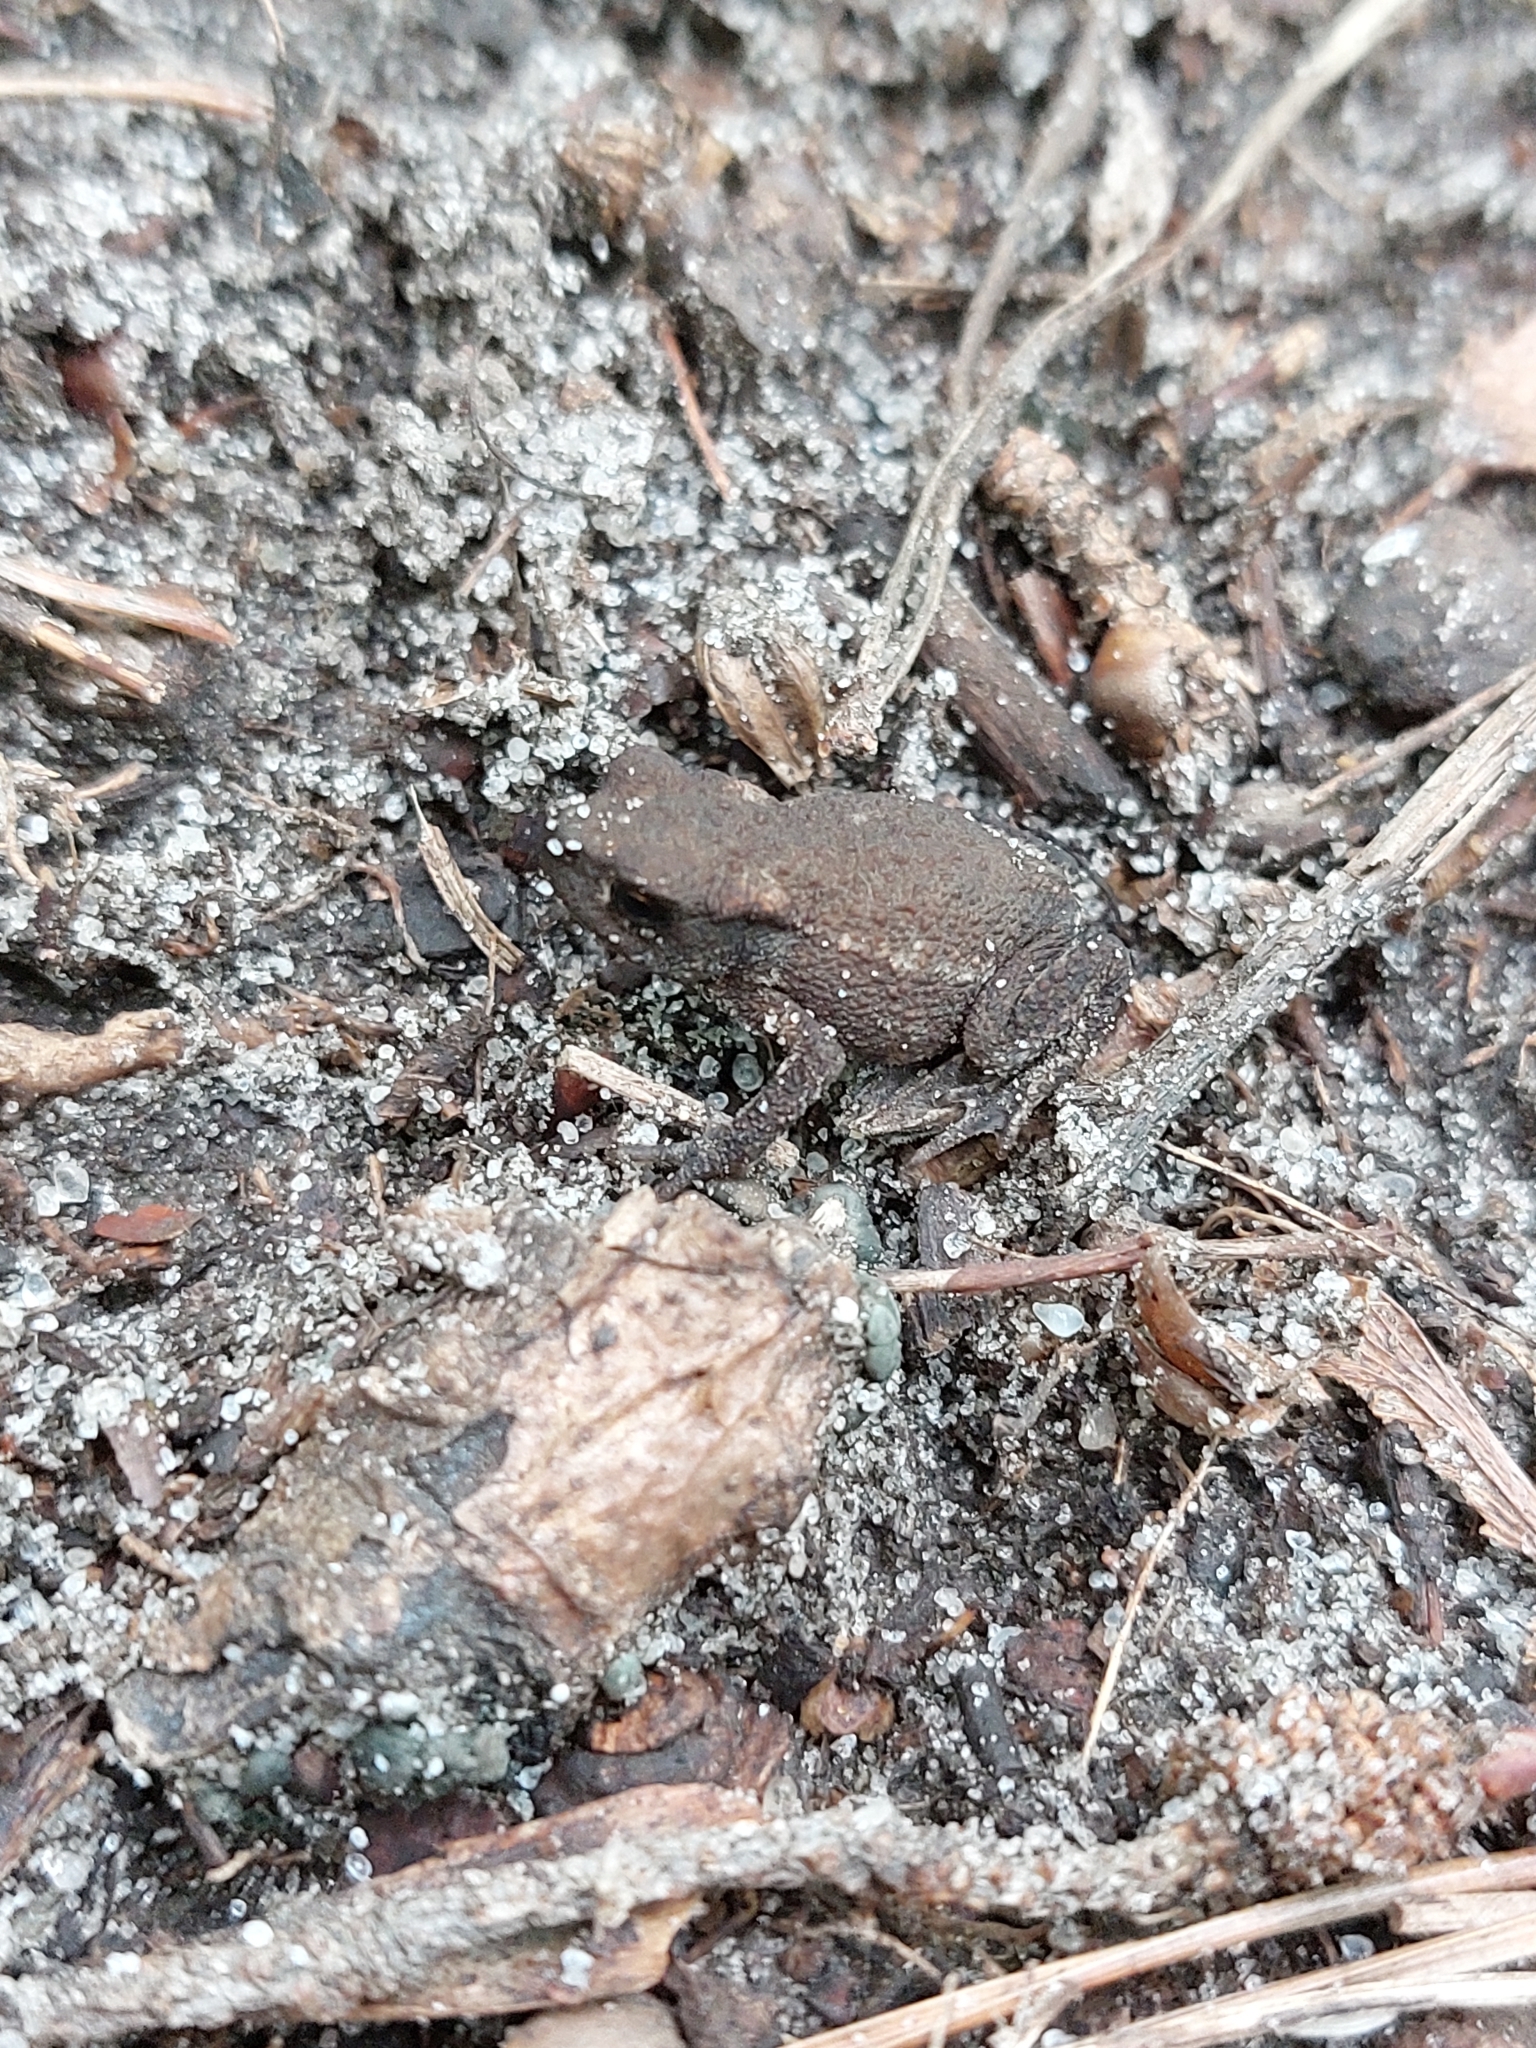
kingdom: Animalia
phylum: Chordata
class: Amphibia
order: Anura
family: Bufonidae
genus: Bufo
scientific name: Bufo bufo
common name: Common toad
